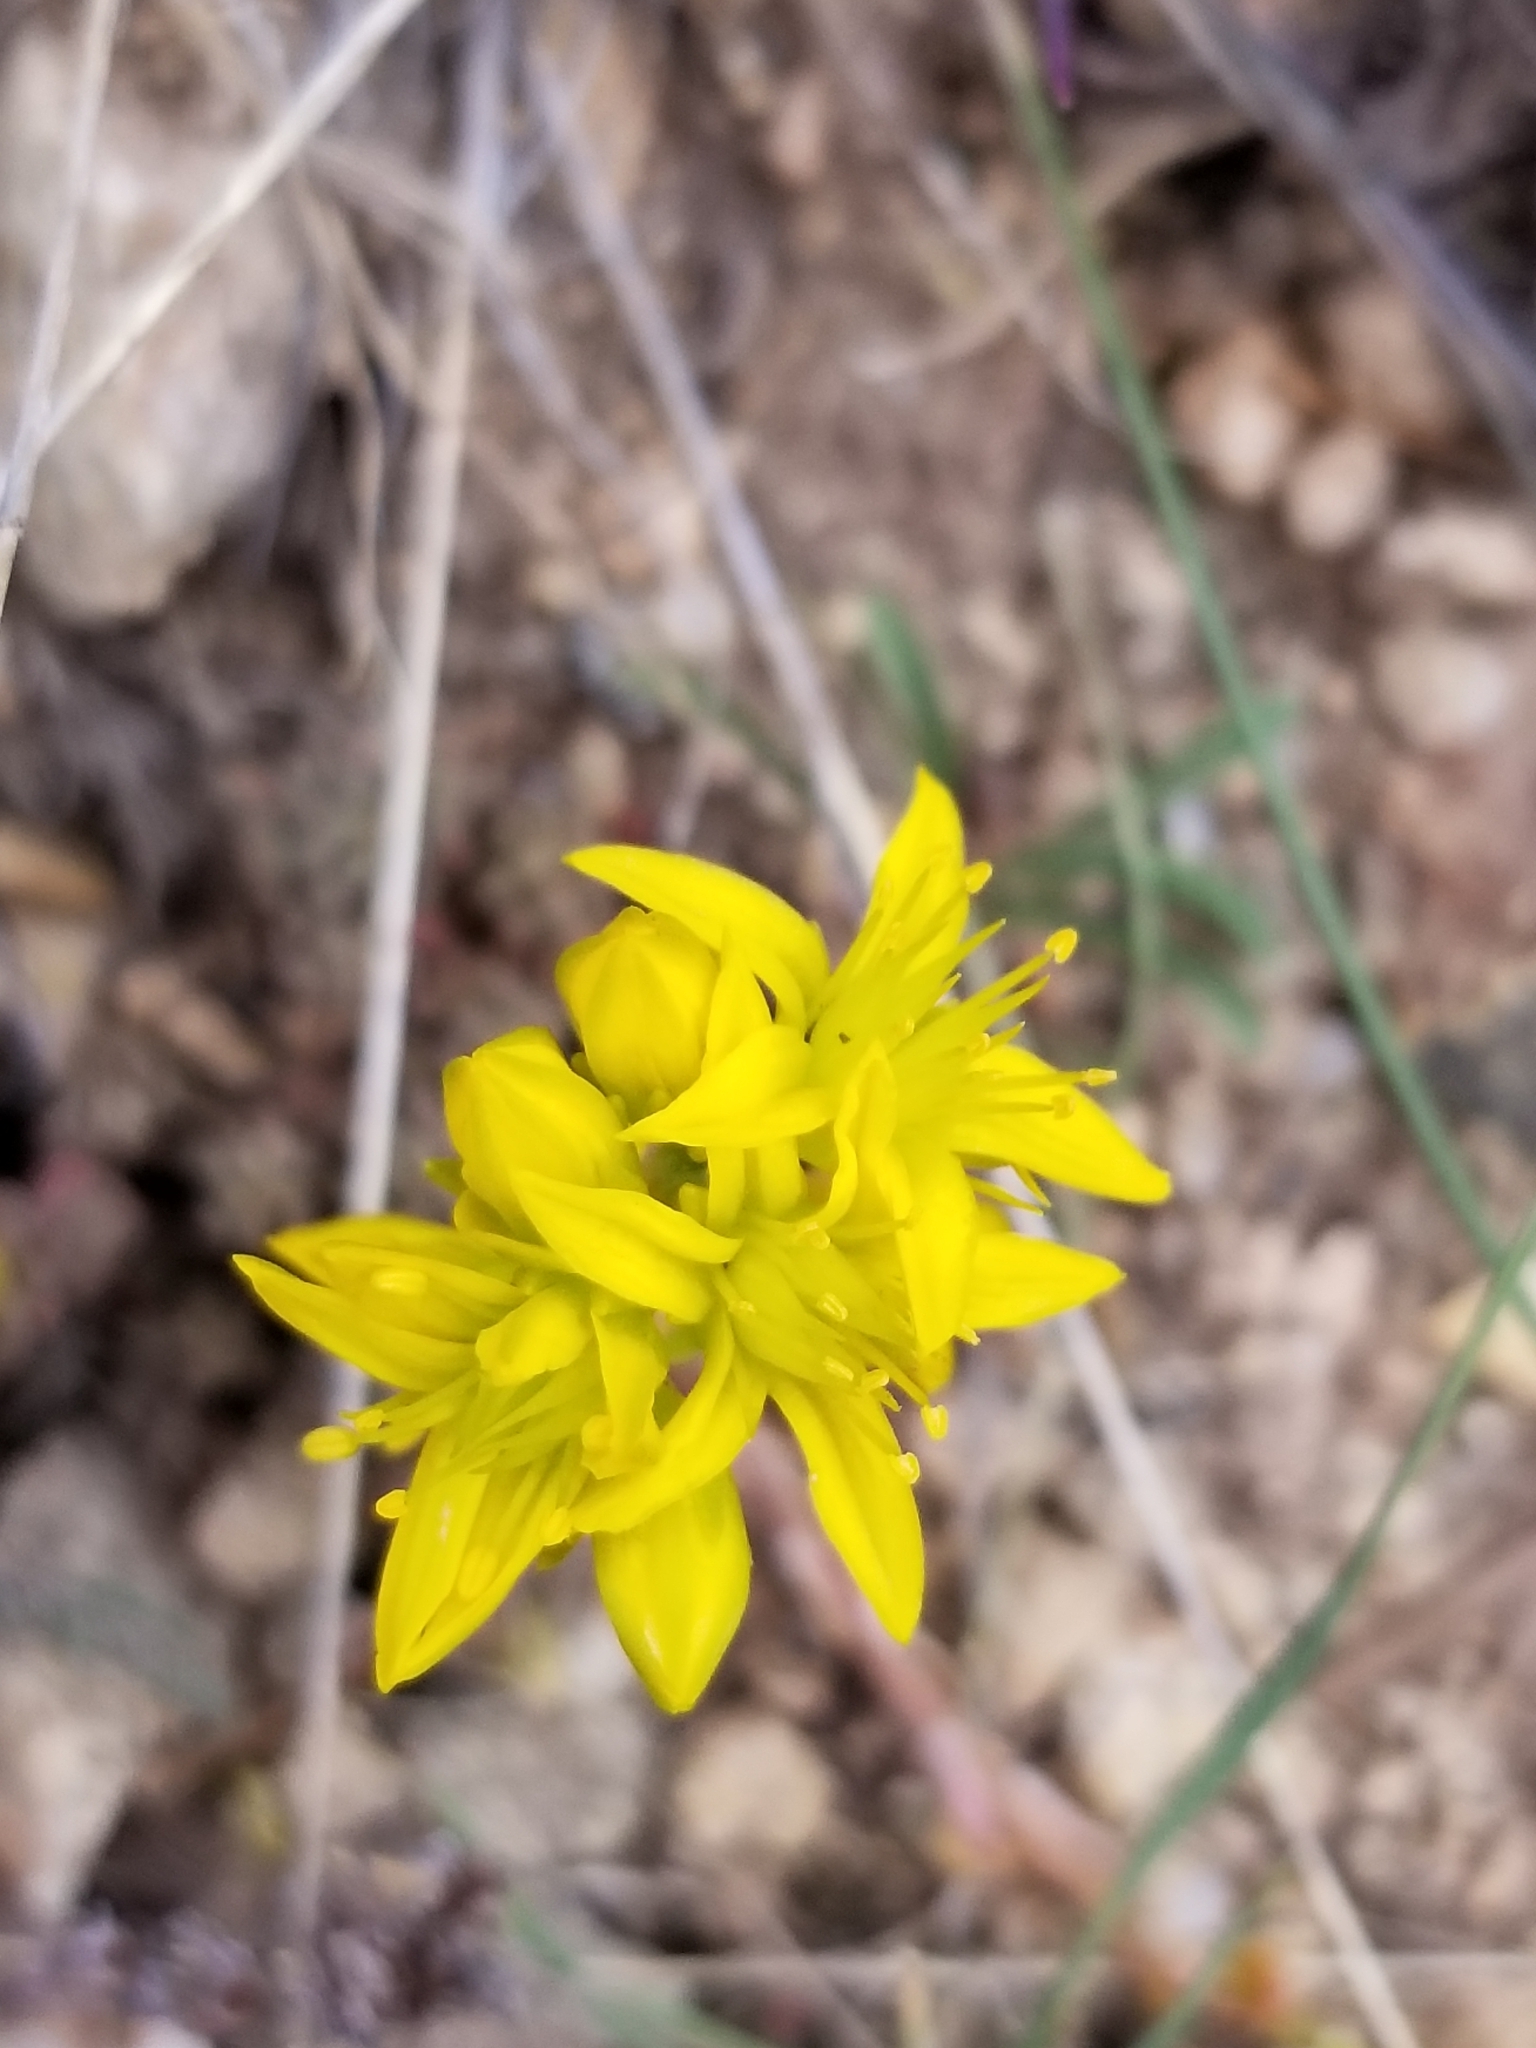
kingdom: Plantae
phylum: Tracheophyta
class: Magnoliopsida
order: Saxifragales
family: Crassulaceae
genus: Sedum
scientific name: Sedum lanceolatum
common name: Common stonecrop
